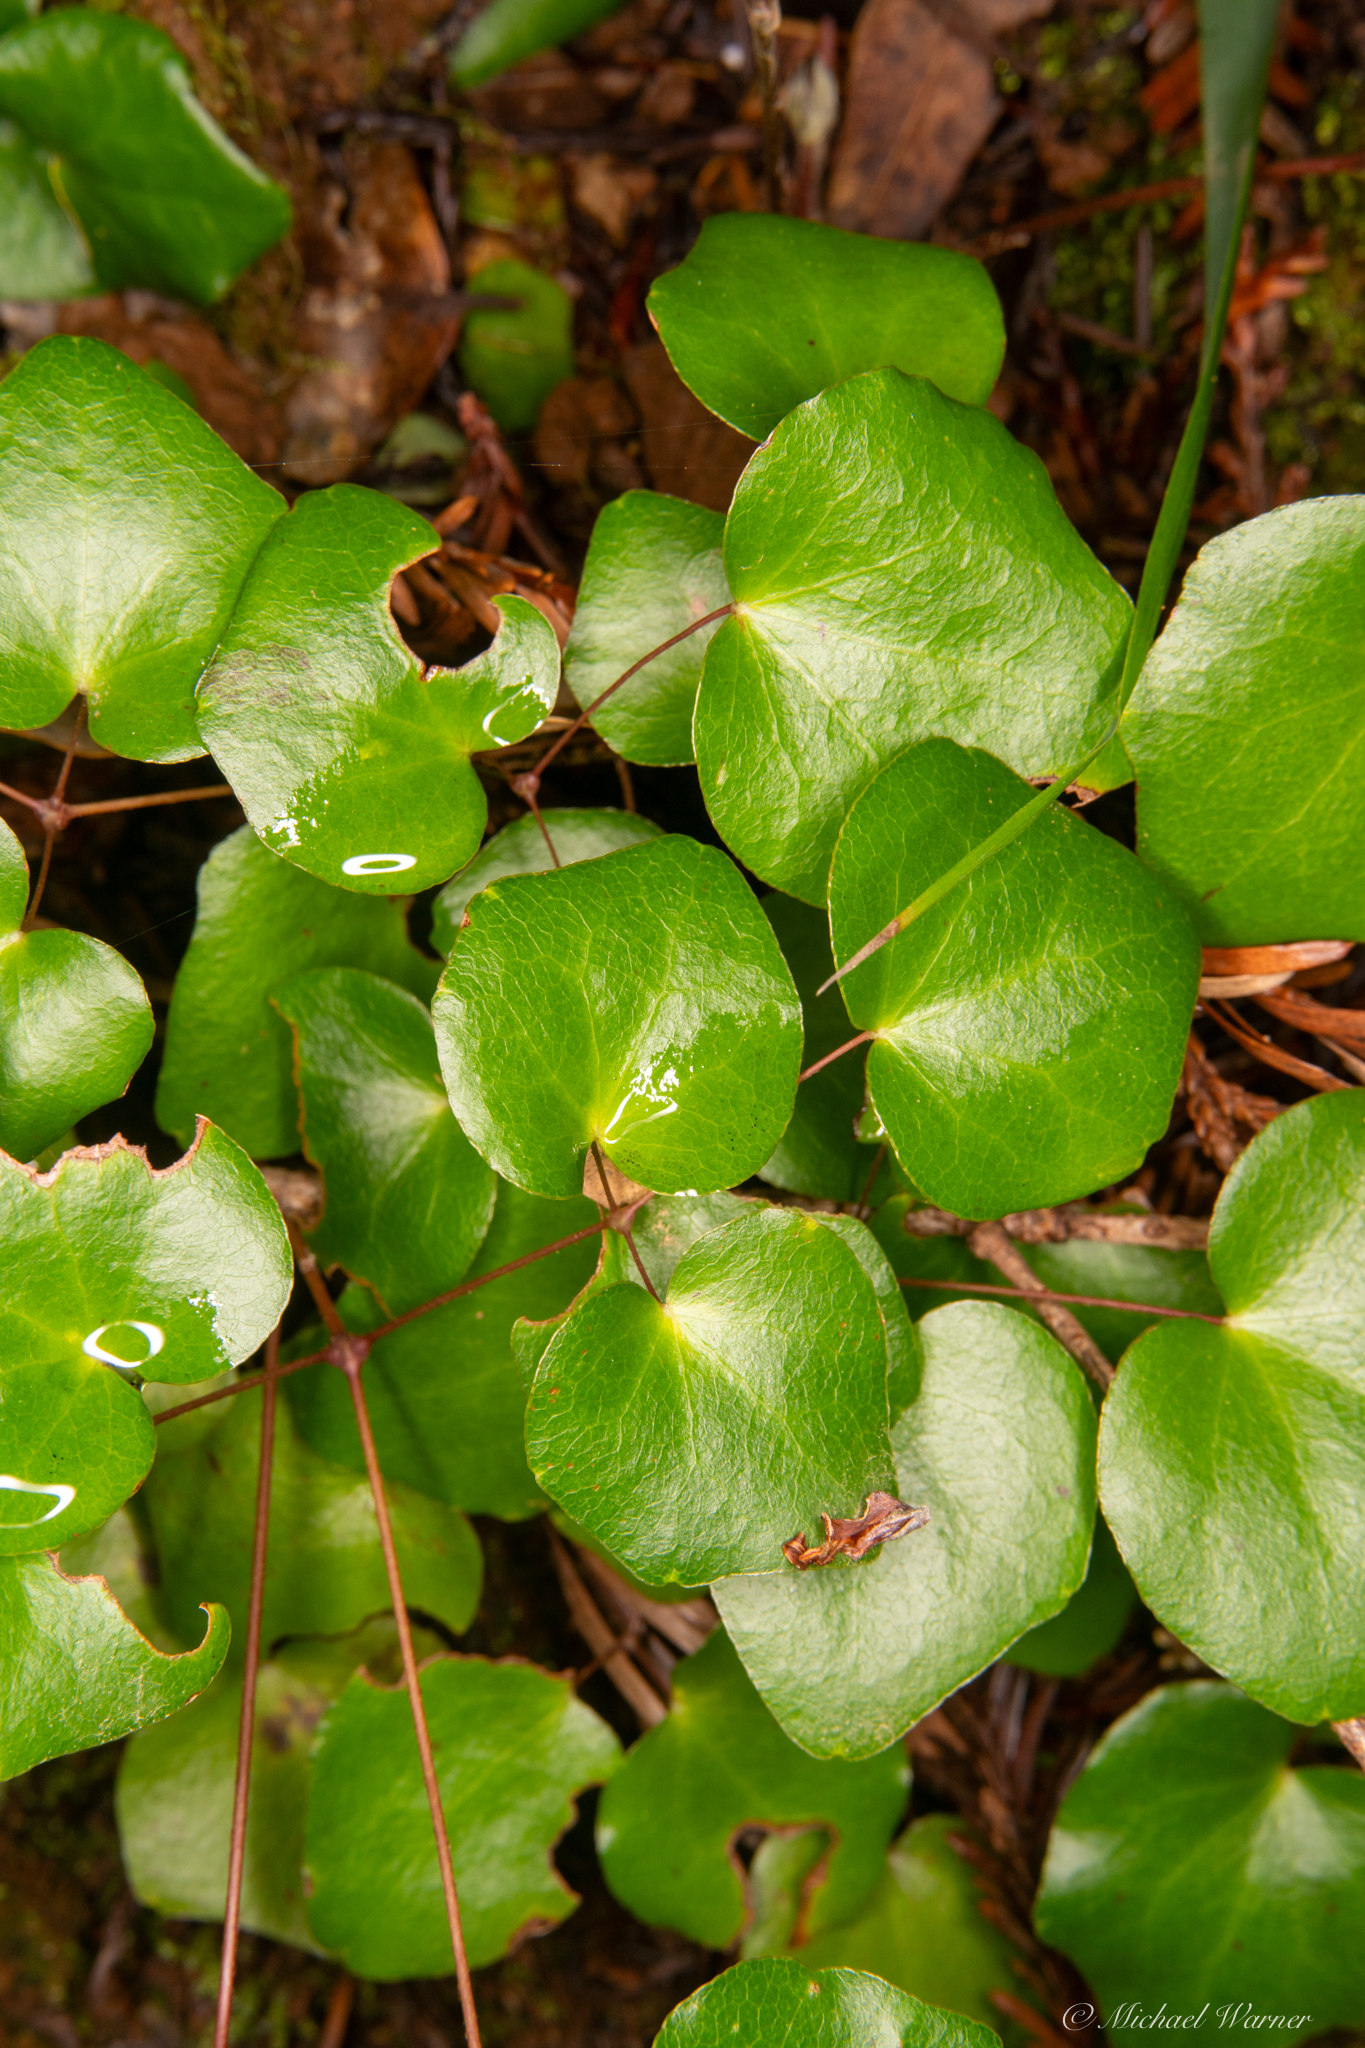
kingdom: Plantae
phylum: Tracheophyta
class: Magnoliopsida
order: Ranunculales
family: Berberidaceae
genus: Vancouveria
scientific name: Vancouveria planipetala
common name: Redwood-ivy
